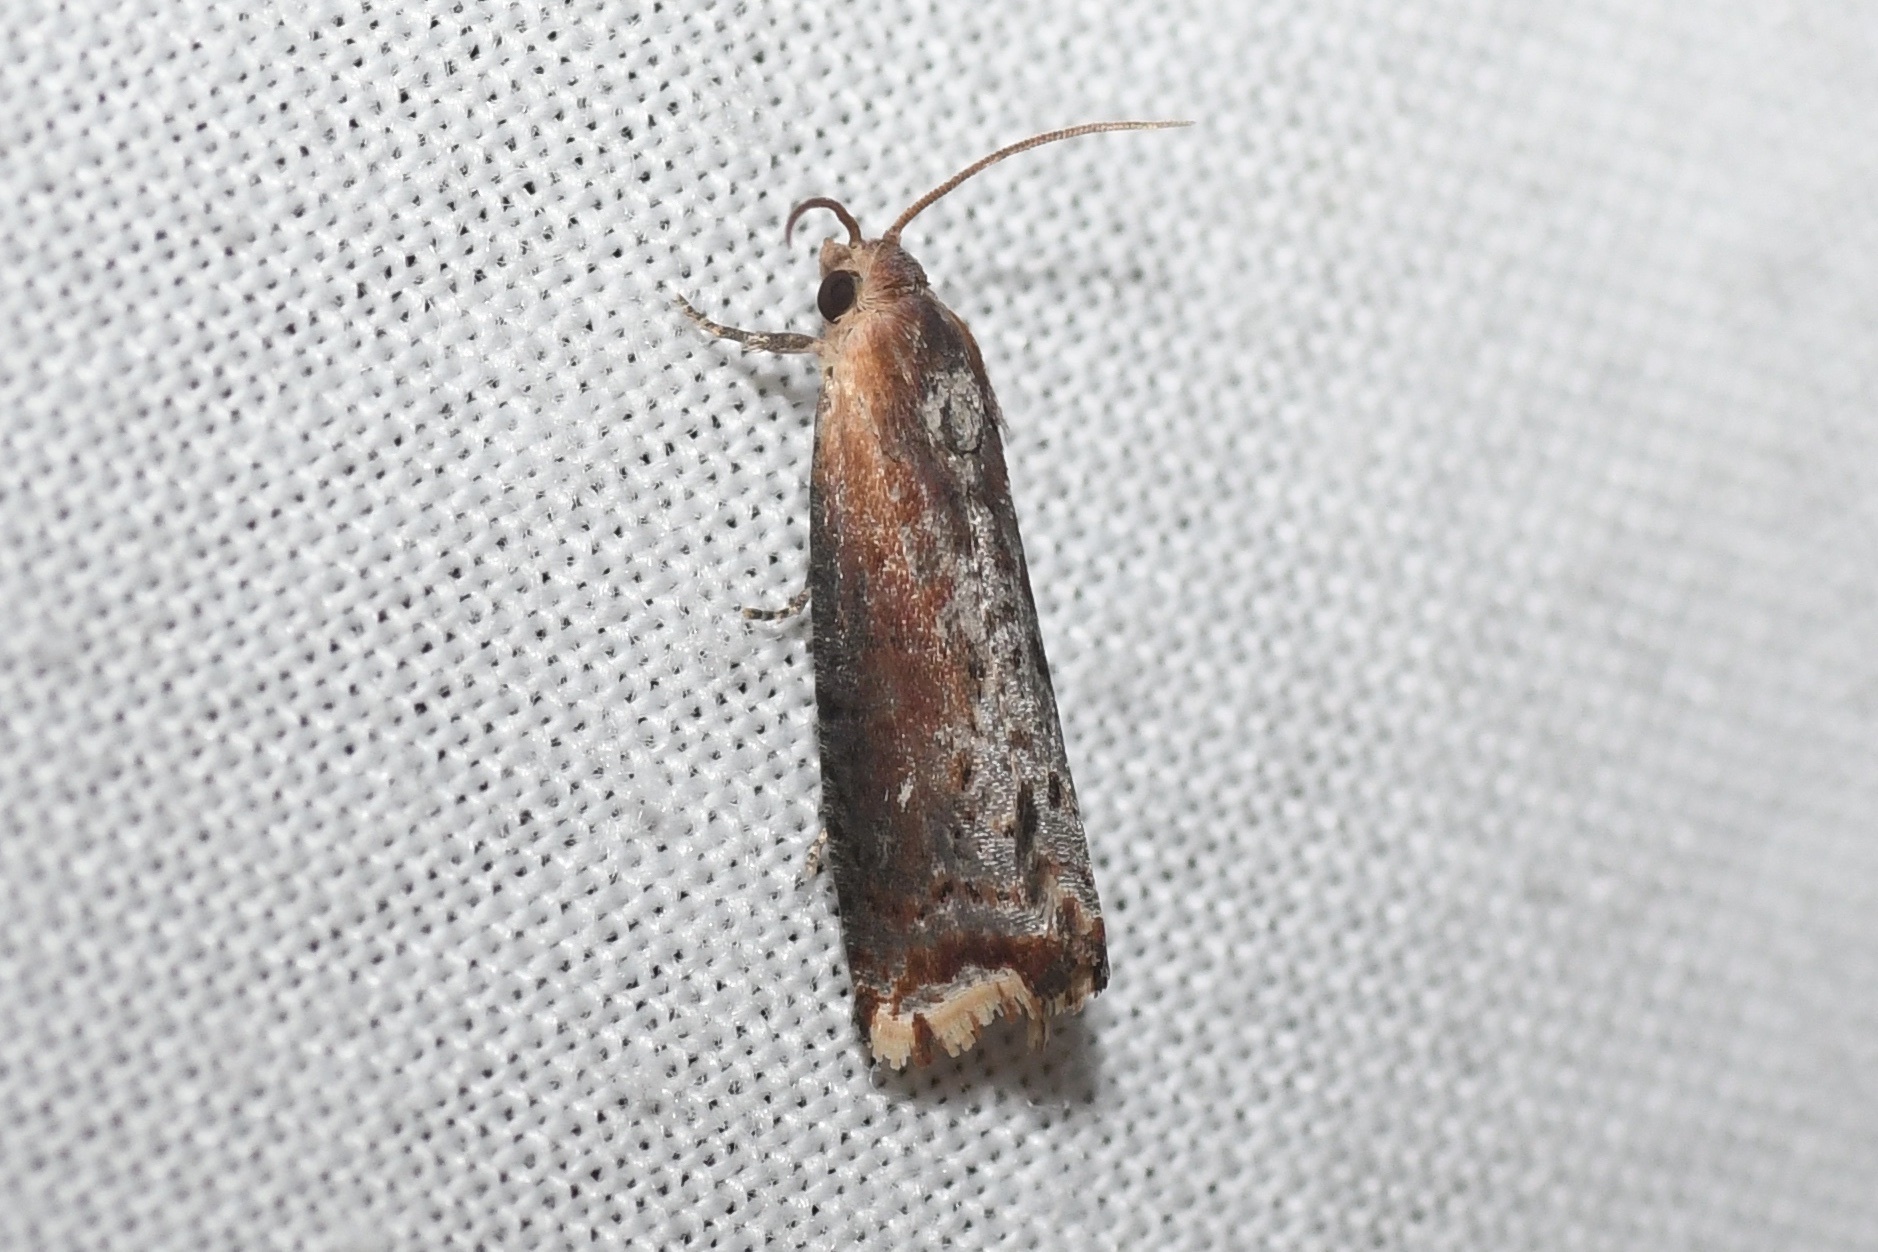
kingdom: Animalia
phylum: Arthropoda
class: Insecta
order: Lepidoptera
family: Tortricidae
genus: Pseudogalleria
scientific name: Pseudogalleria inimicella
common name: Inimical borer moth
